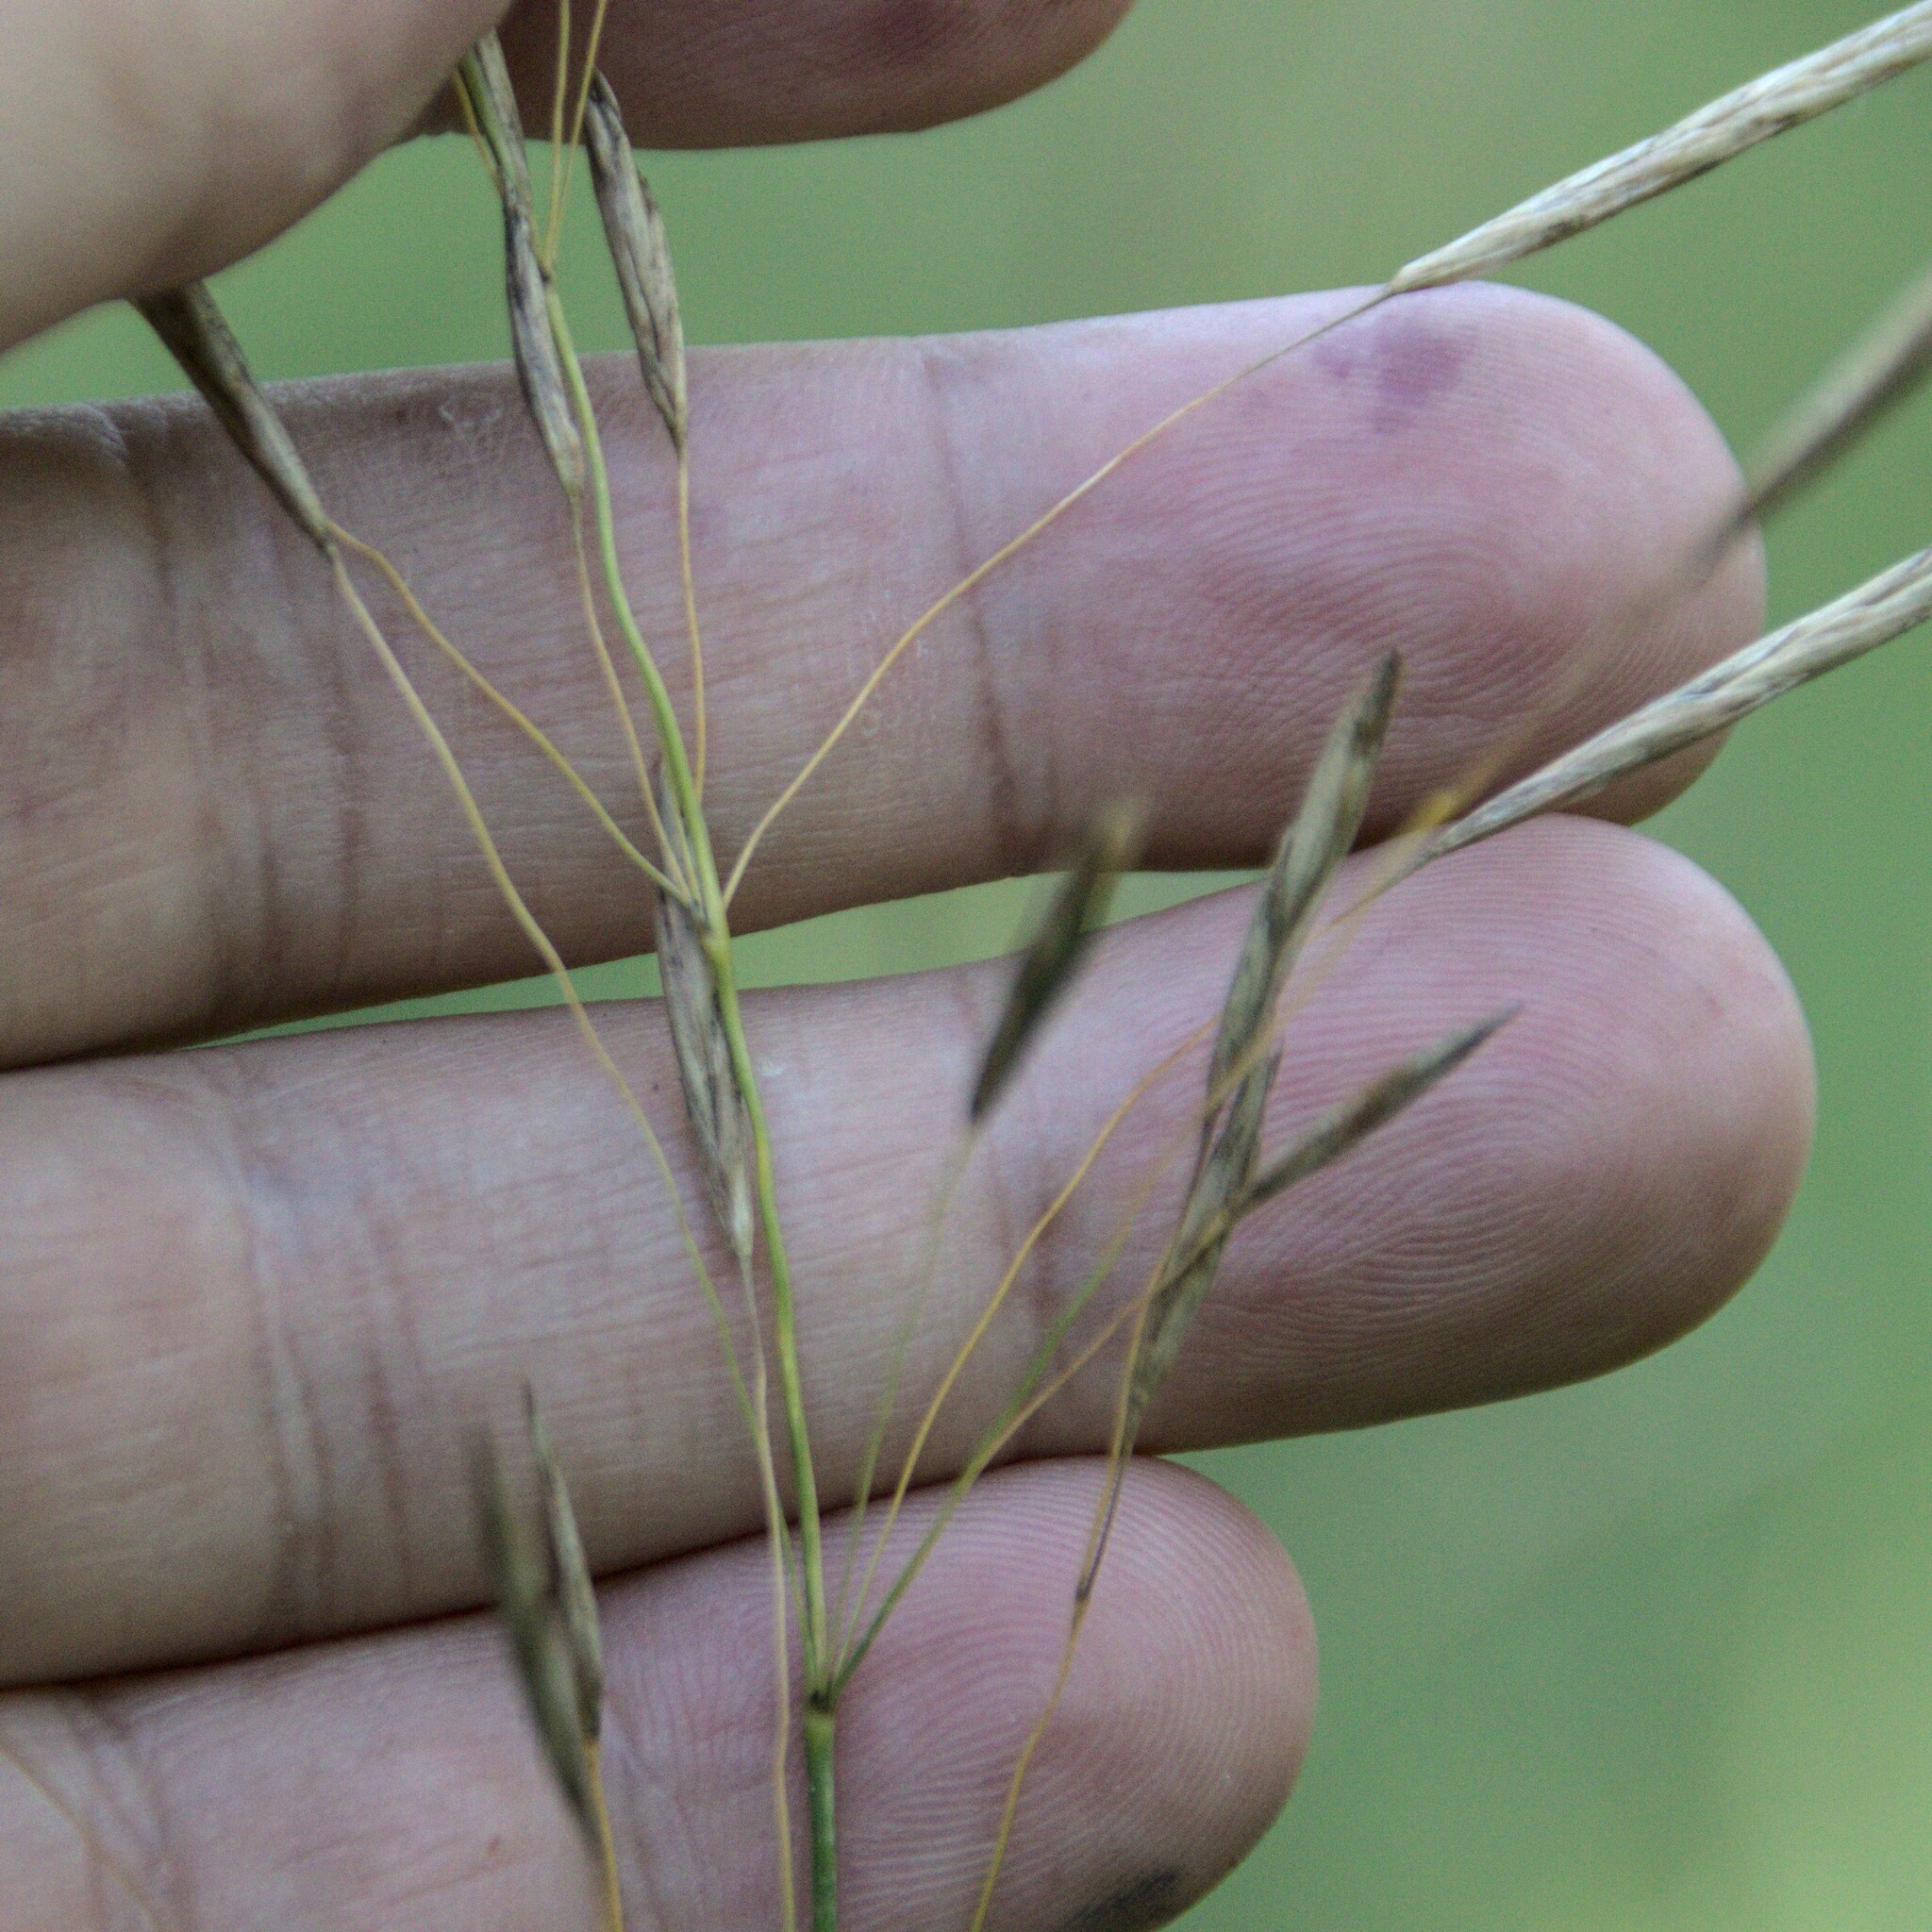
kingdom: Plantae
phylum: Tracheophyta
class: Liliopsida
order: Poales
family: Poaceae
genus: Bromus
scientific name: Bromus inermis
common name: Smooth brome
